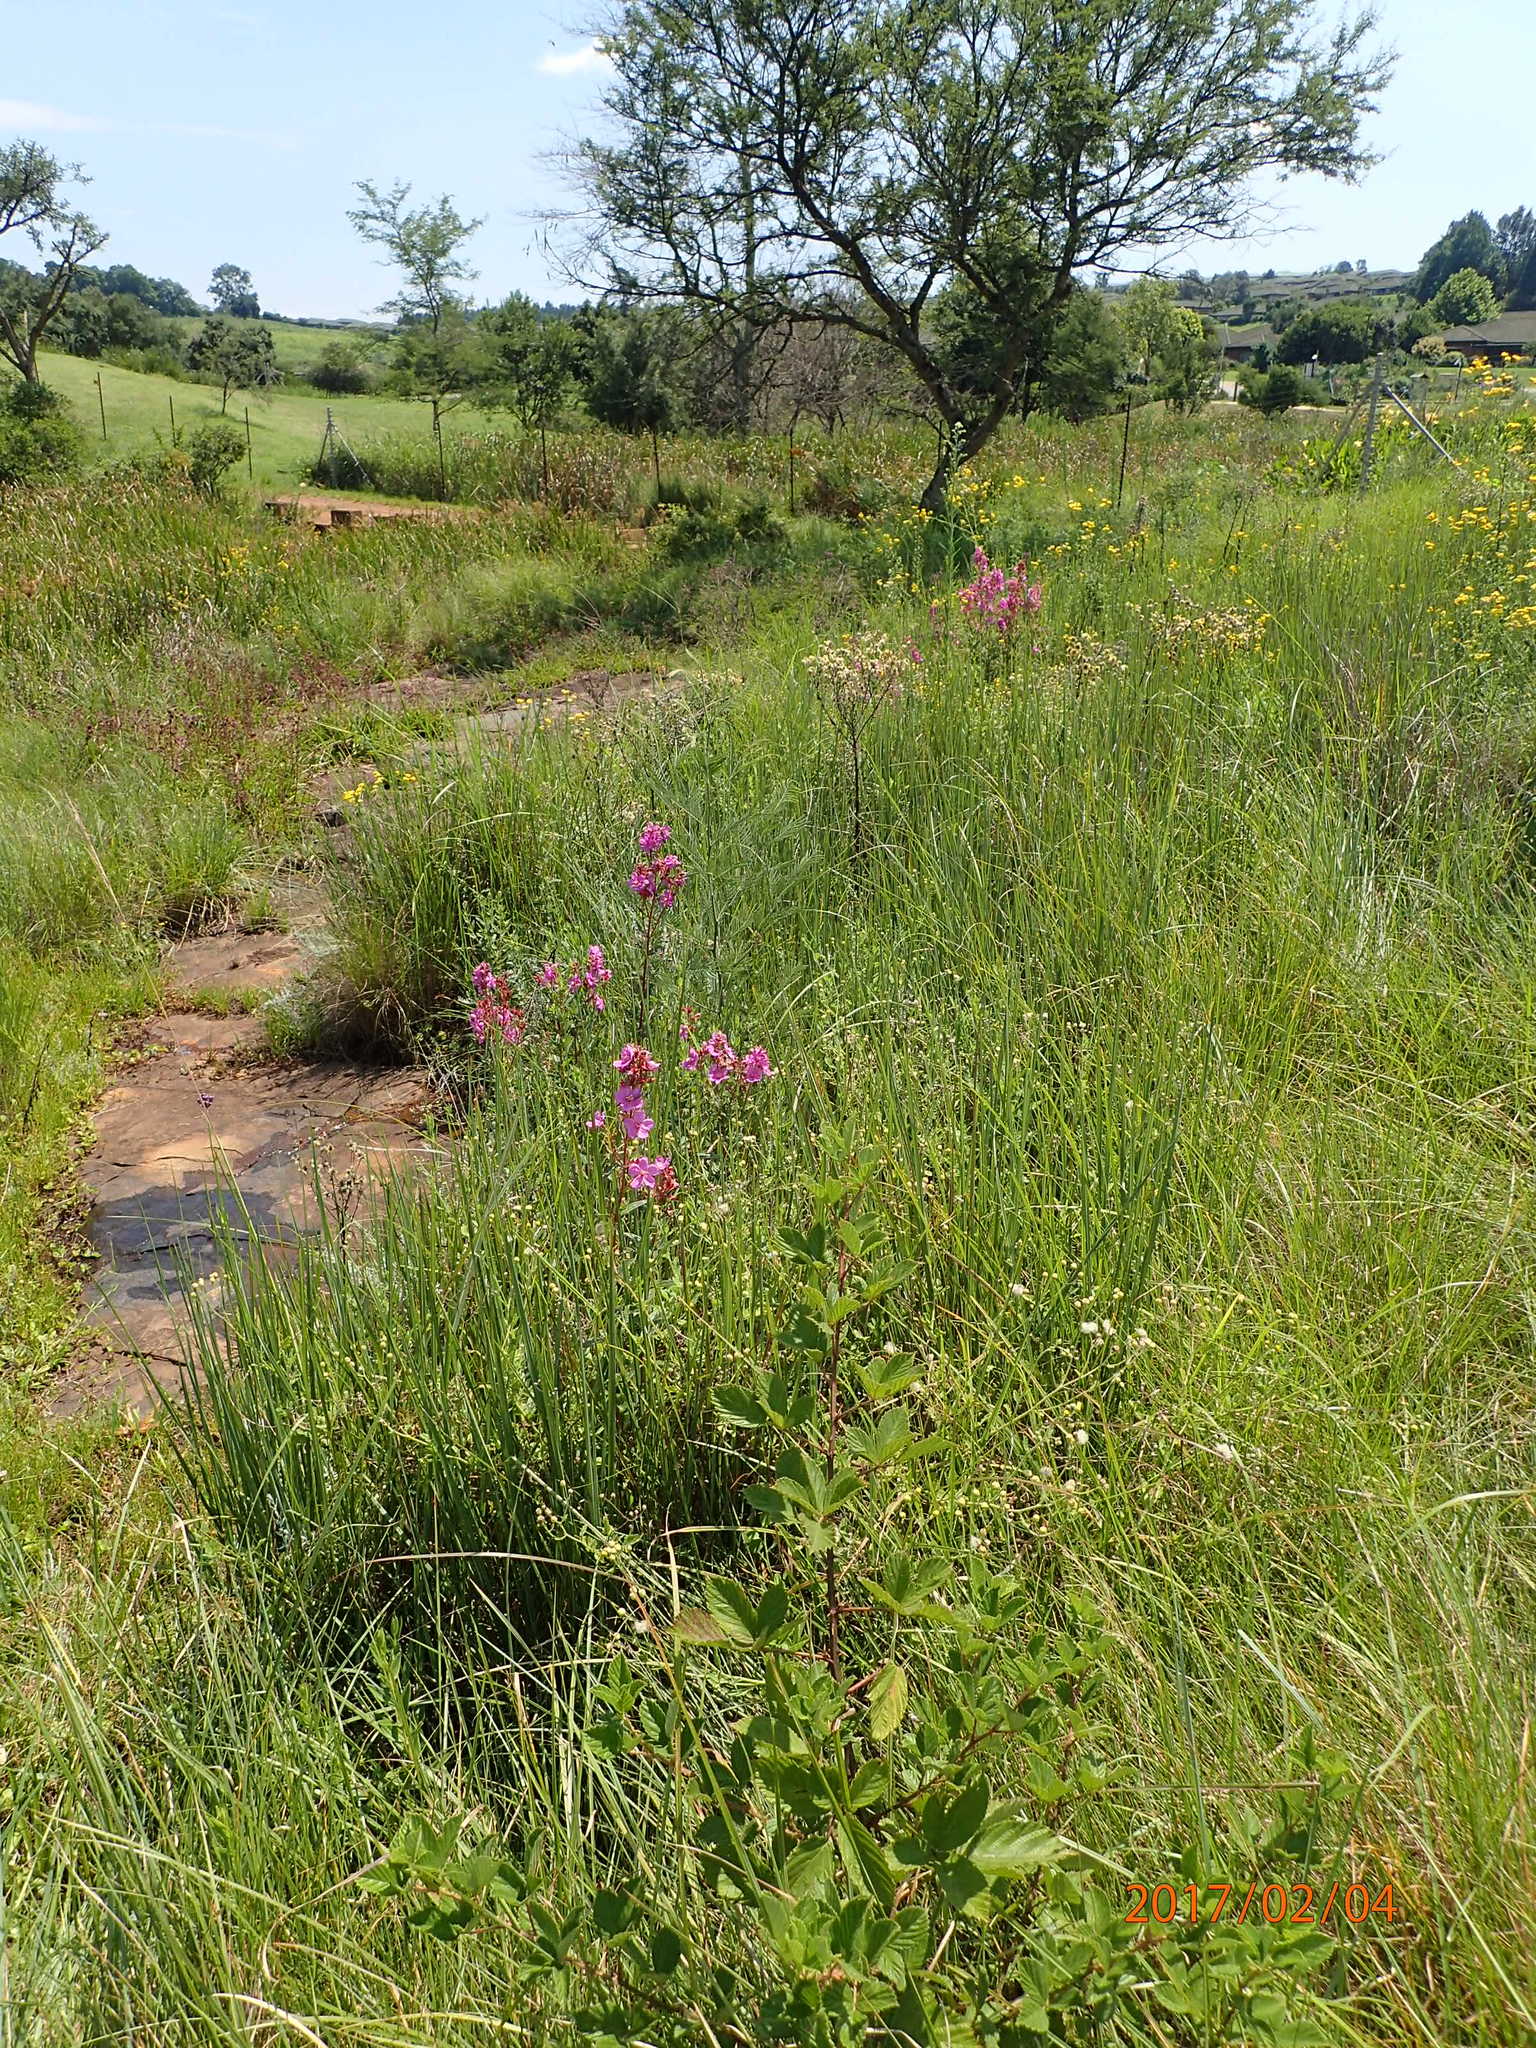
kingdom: Plantae
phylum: Tracheophyta
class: Magnoliopsida
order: Myrtales
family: Melastomataceae
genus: Argyrella
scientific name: Argyrella canescens
